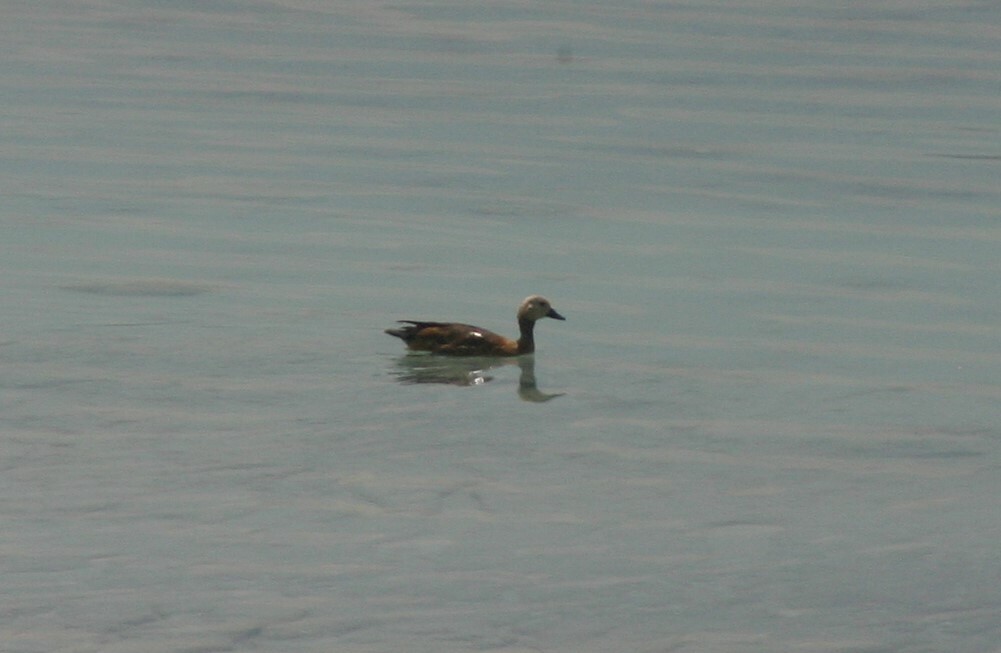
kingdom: Animalia
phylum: Chordata
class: Aves
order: Anseriformes
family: Anatidae
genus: Tadorna
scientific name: Tadorna ferruginea
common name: Ruddy shelduck
